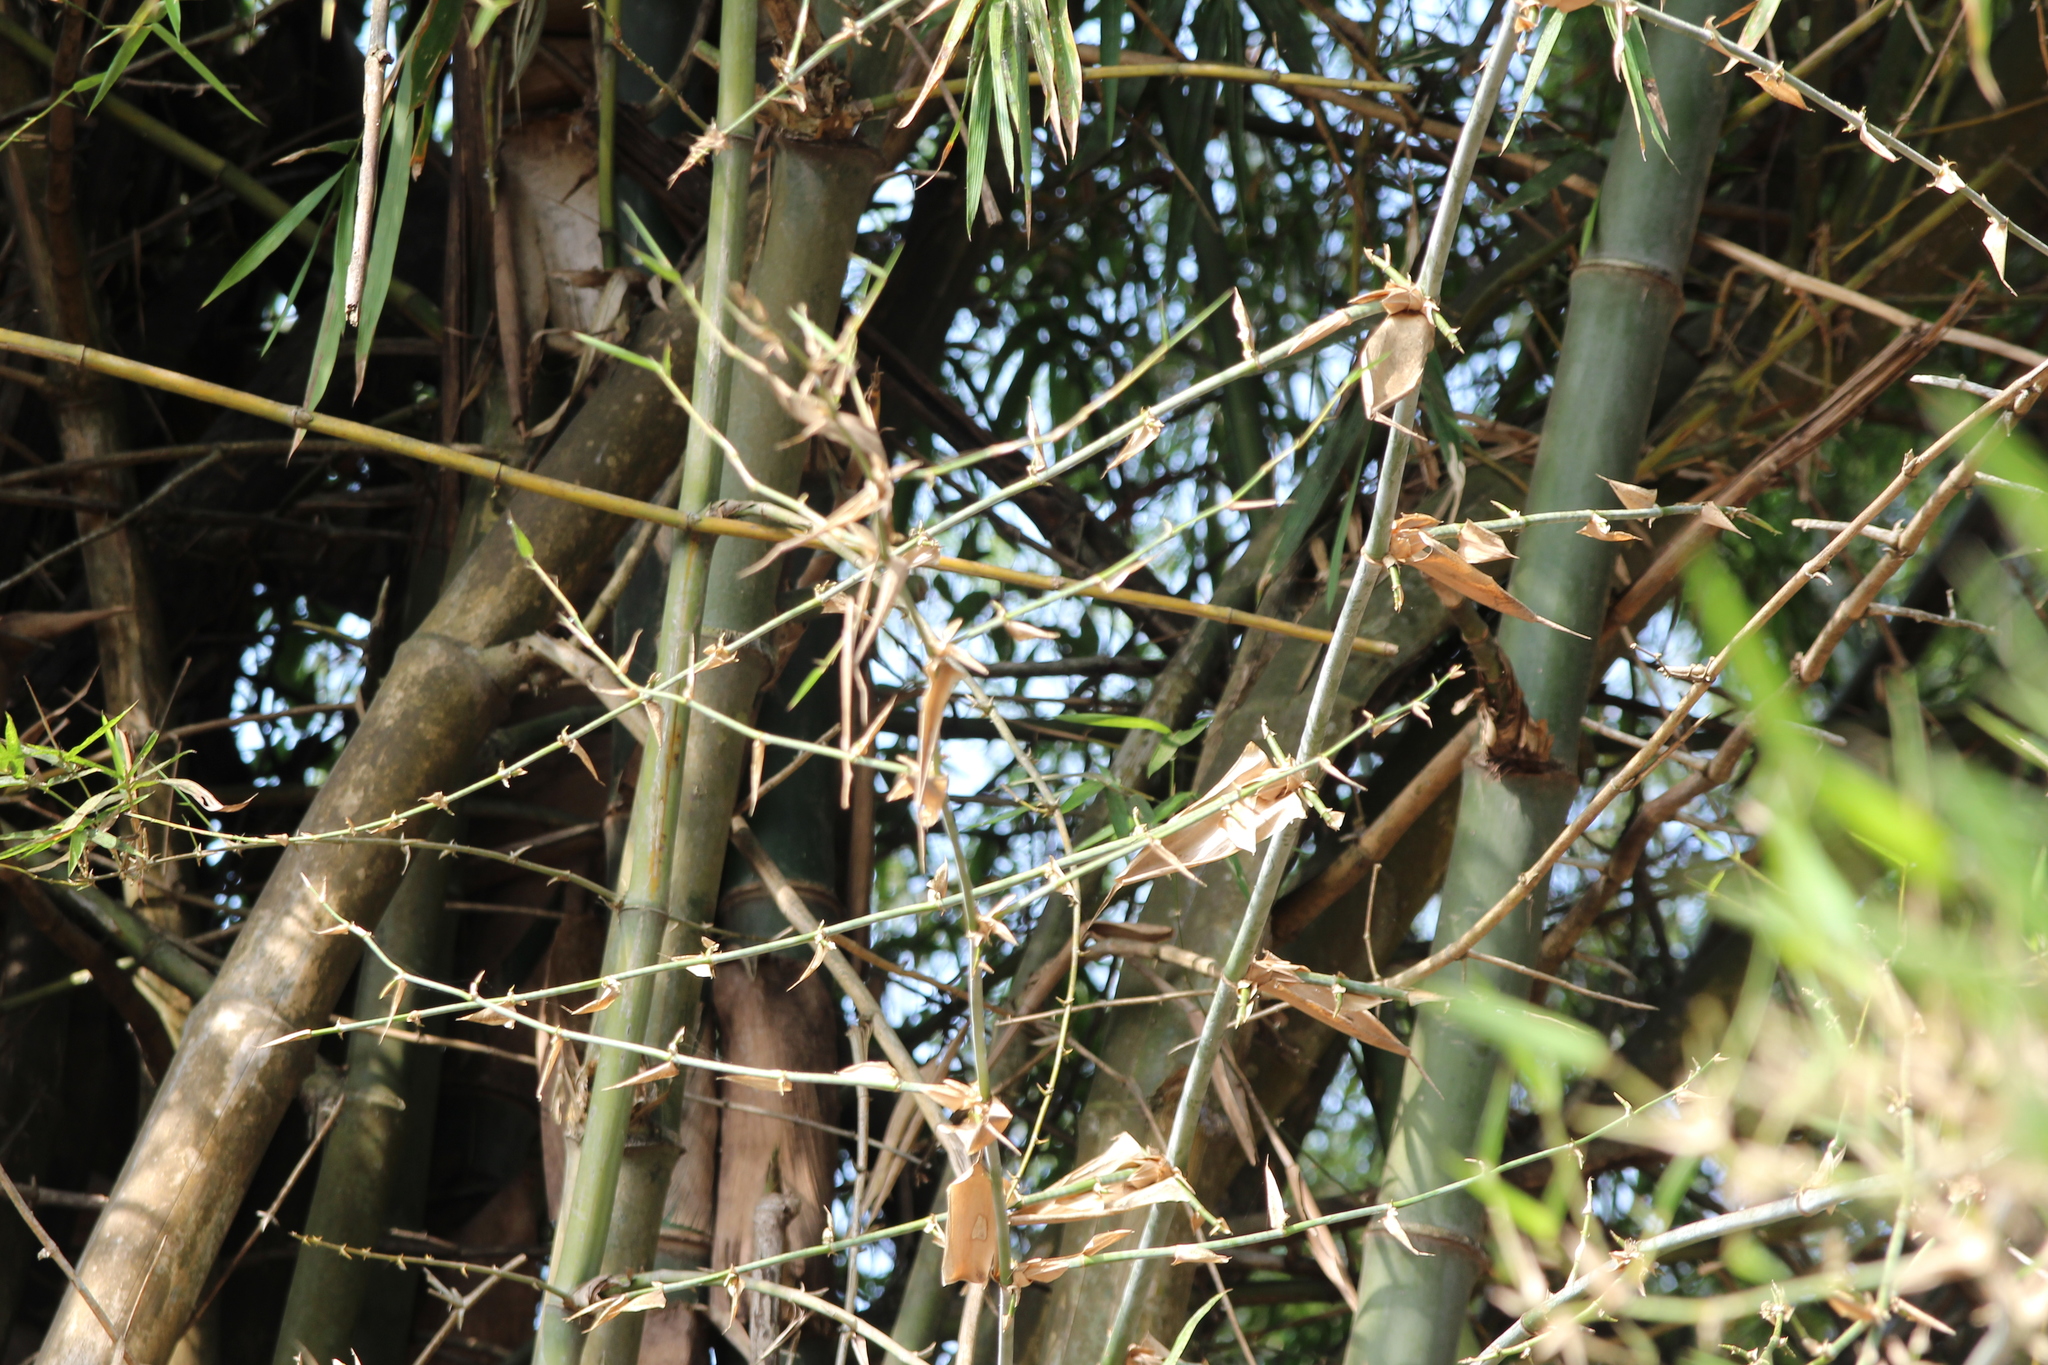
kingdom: Plantae
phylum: Tracheophyta
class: Liliopsida
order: Poales
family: Poaceae
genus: Bambusa
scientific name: Bambusa spinosa
